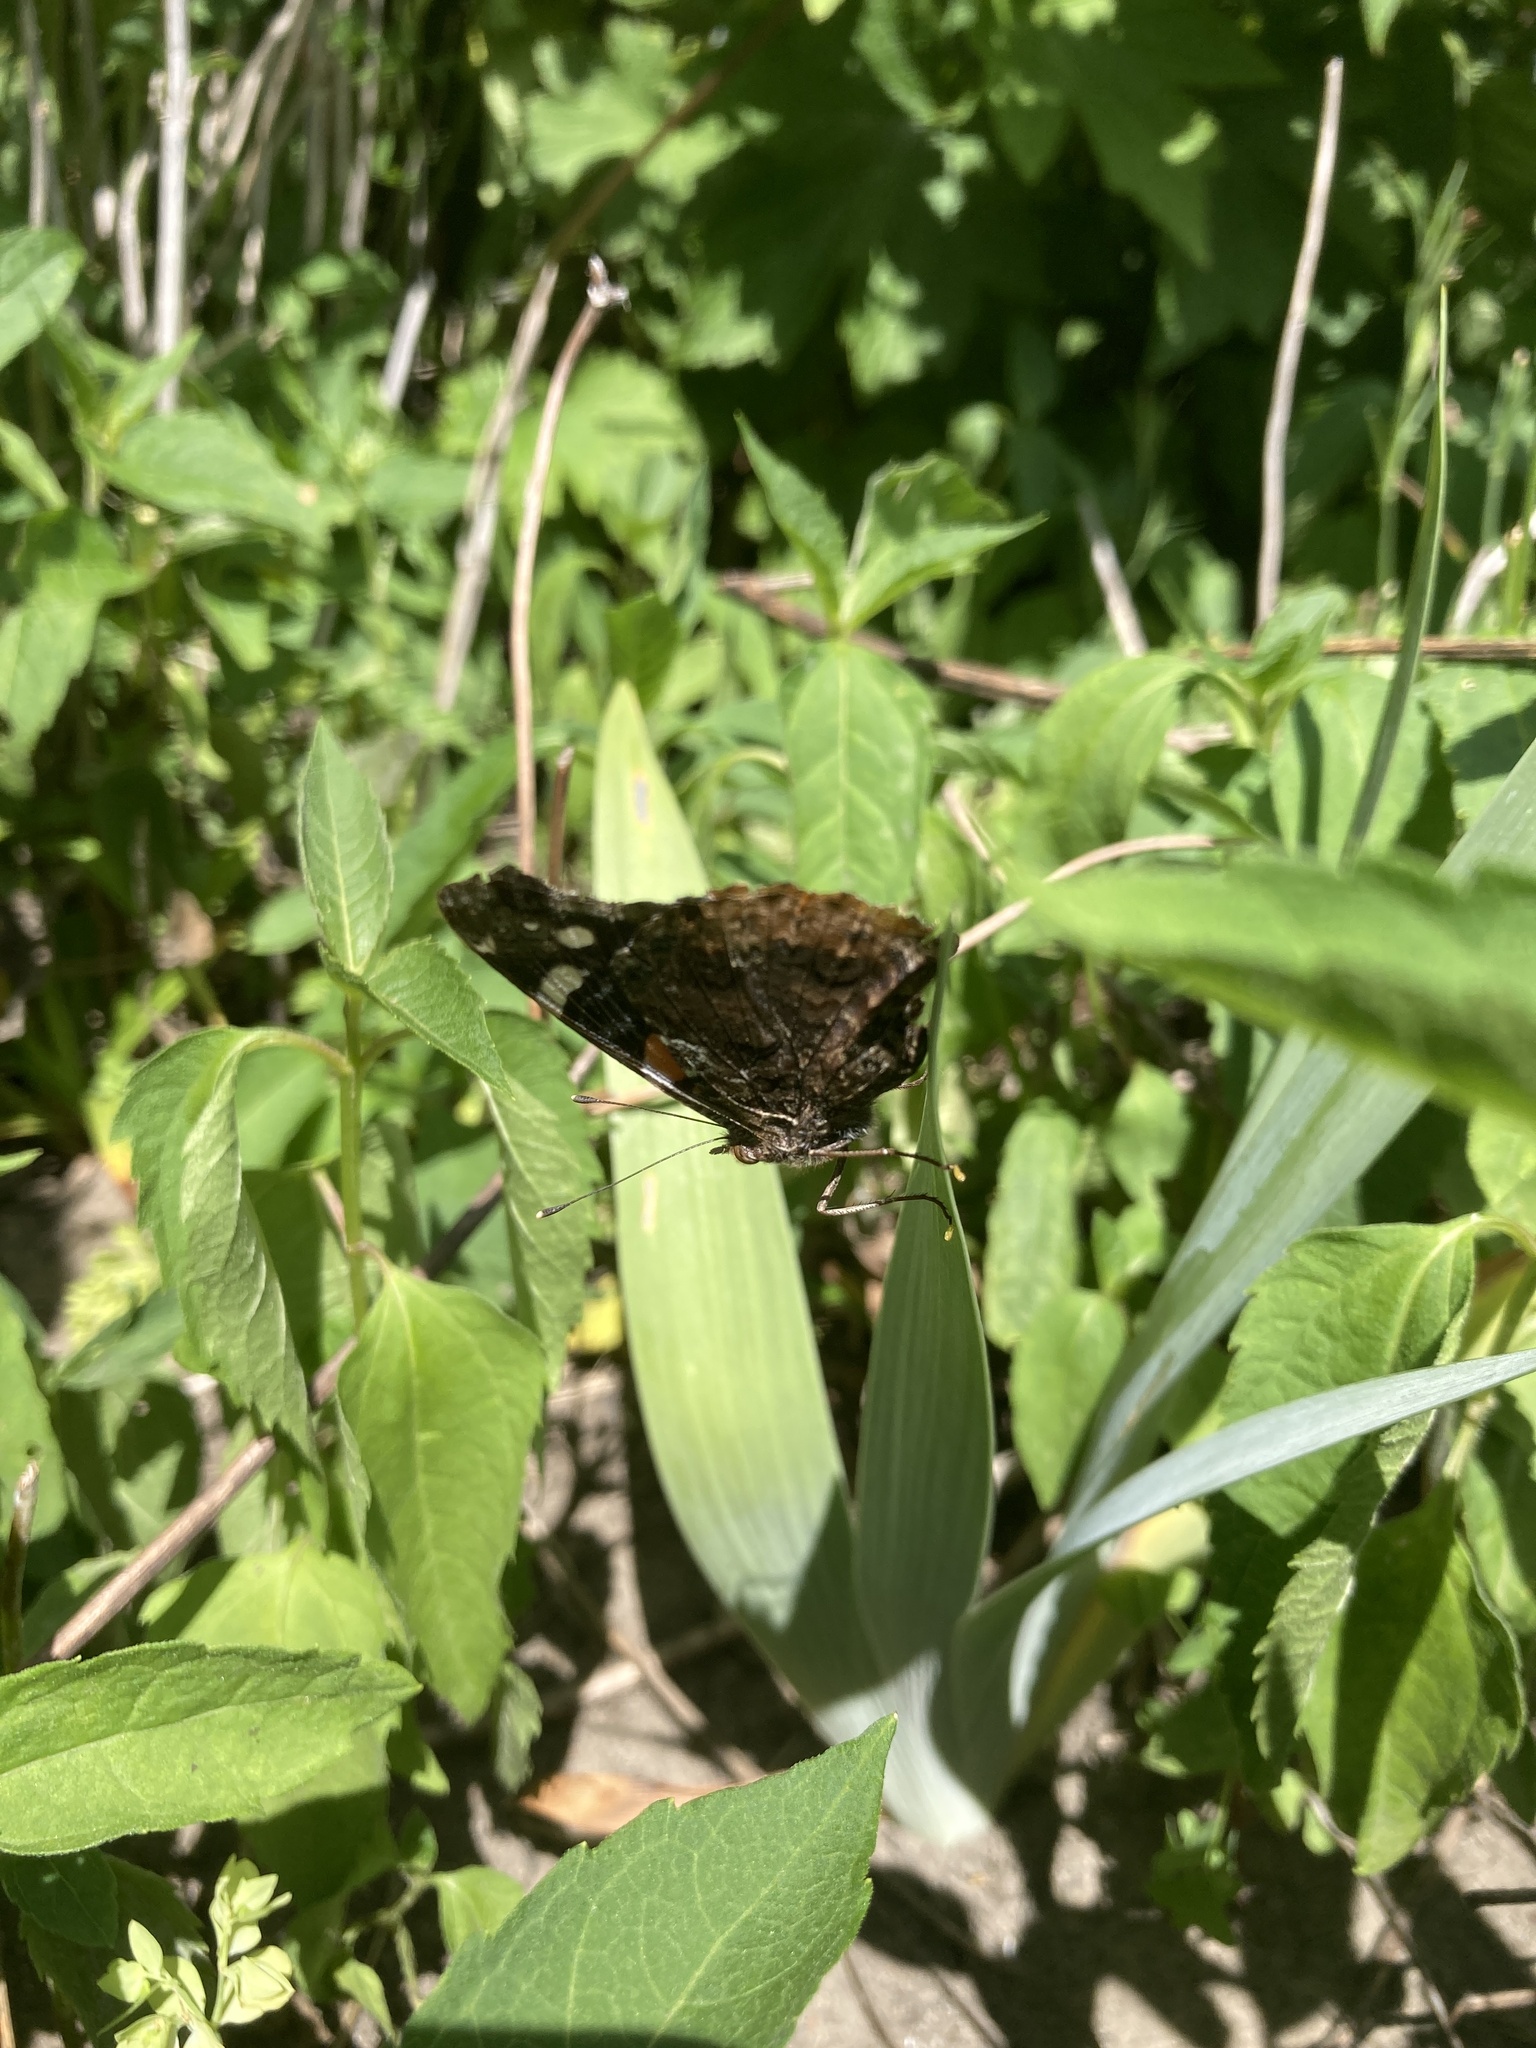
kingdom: Animalia
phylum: Arthropoda
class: Insecta
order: Lepidoptera
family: Nymphalidae
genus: Vanessa
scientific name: Vanessa atalanta
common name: Red admiral
